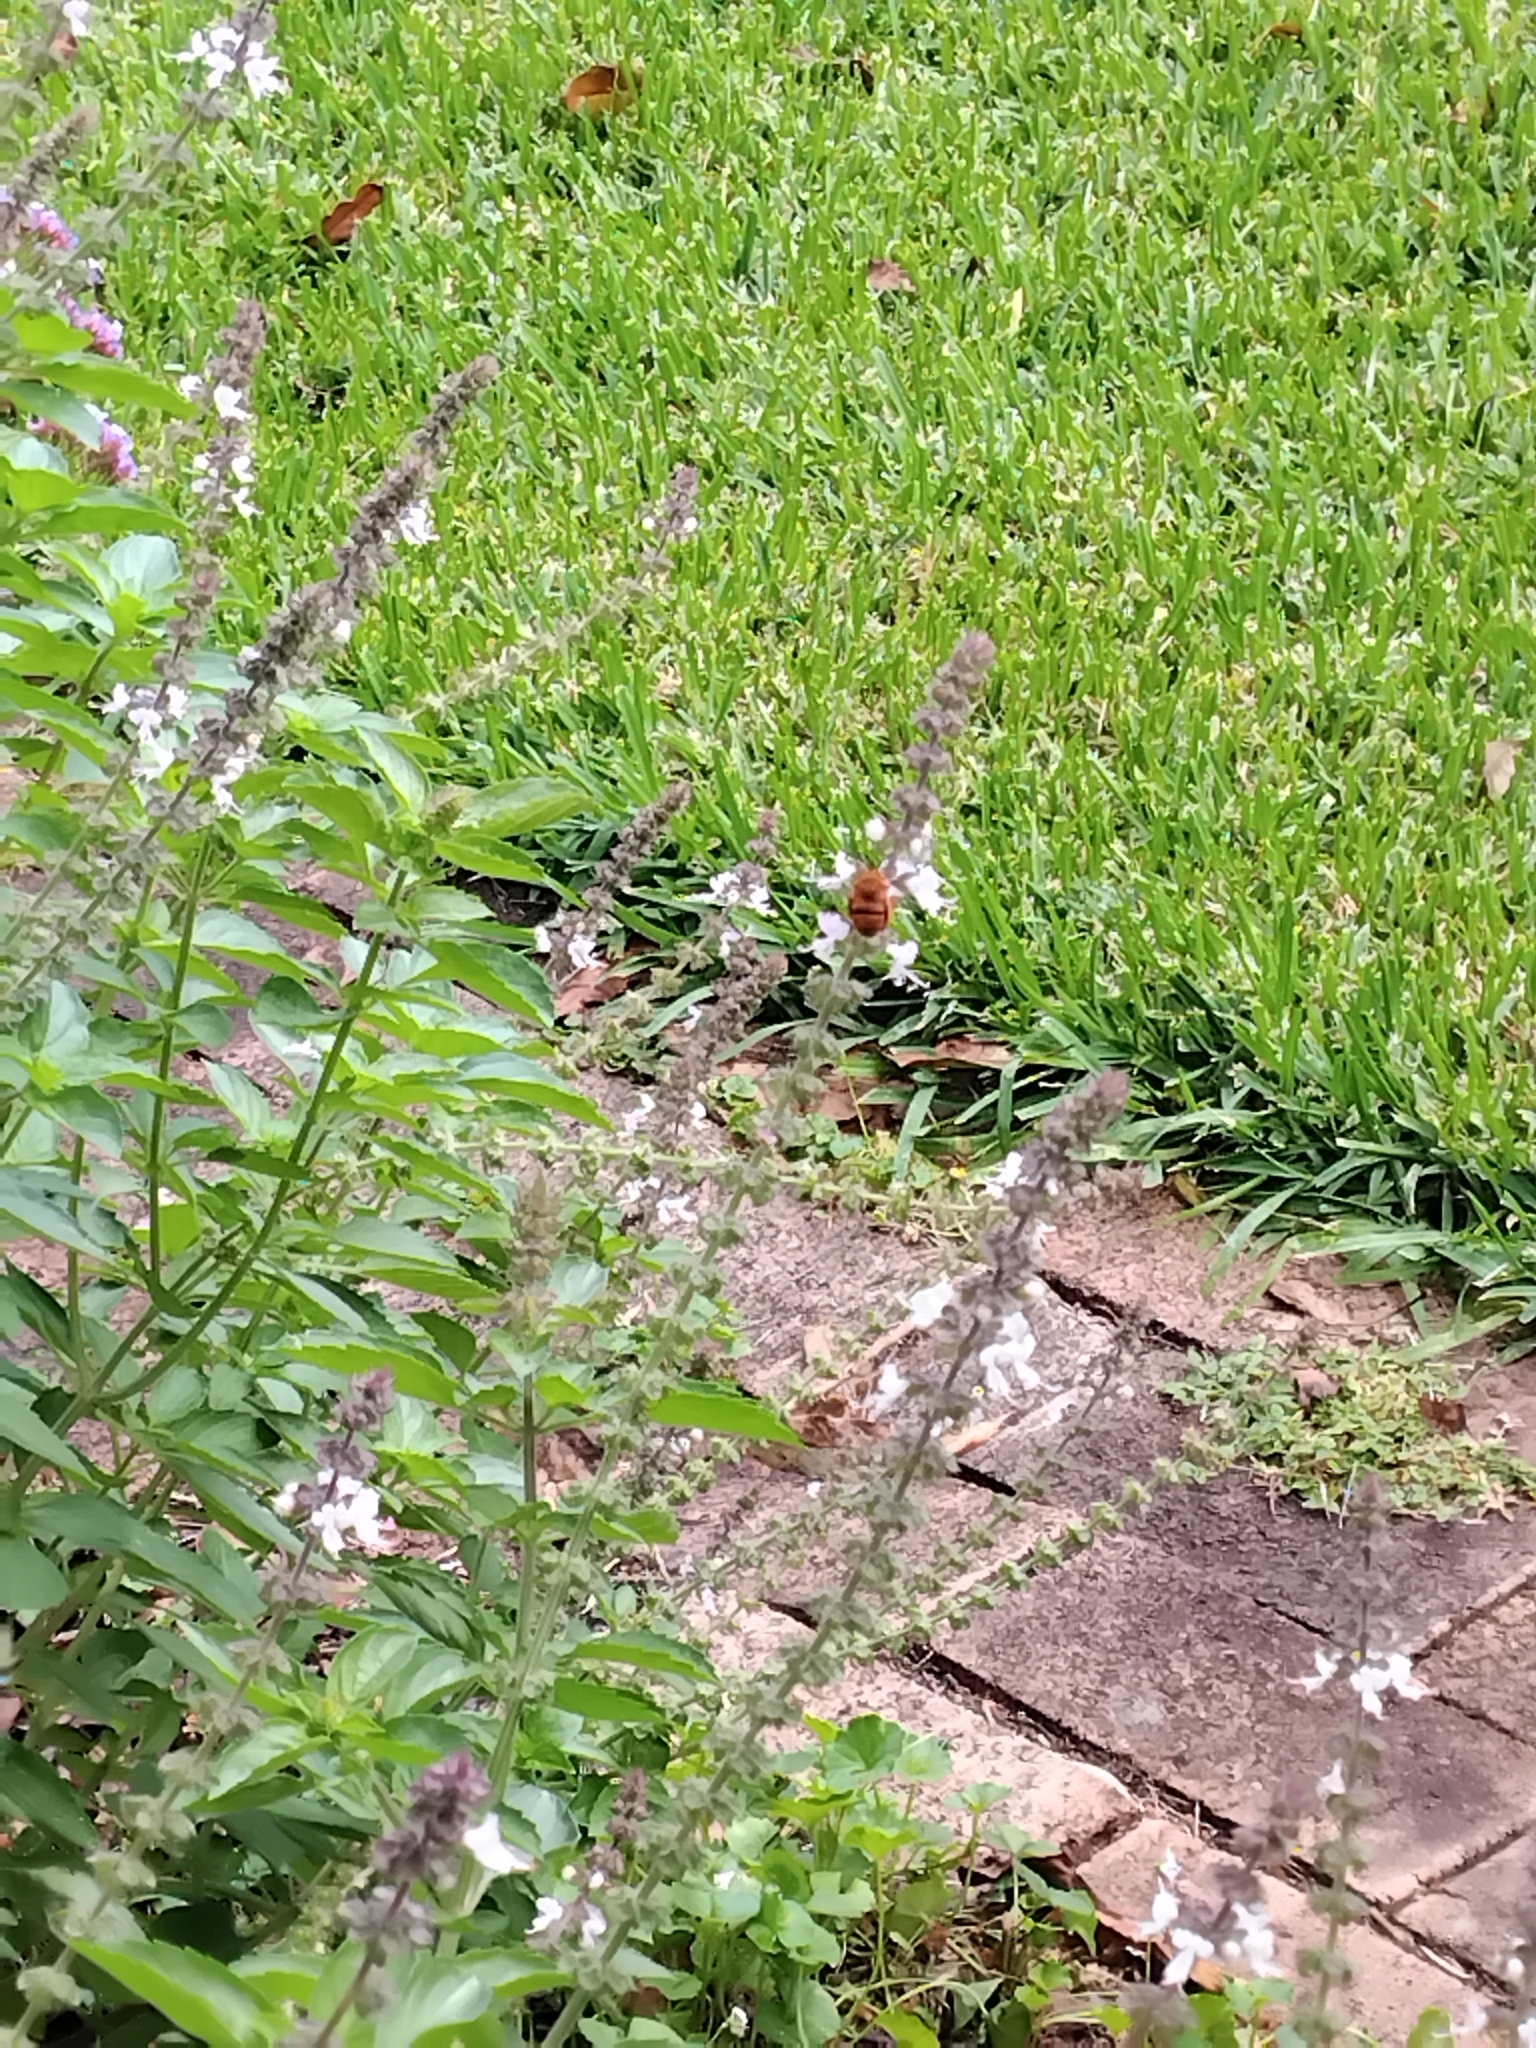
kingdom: Animalia
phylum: Arthropoda
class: Insecta
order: Hymenoptera
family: Apidae
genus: Amegilla
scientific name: Amegilla bombiformis
